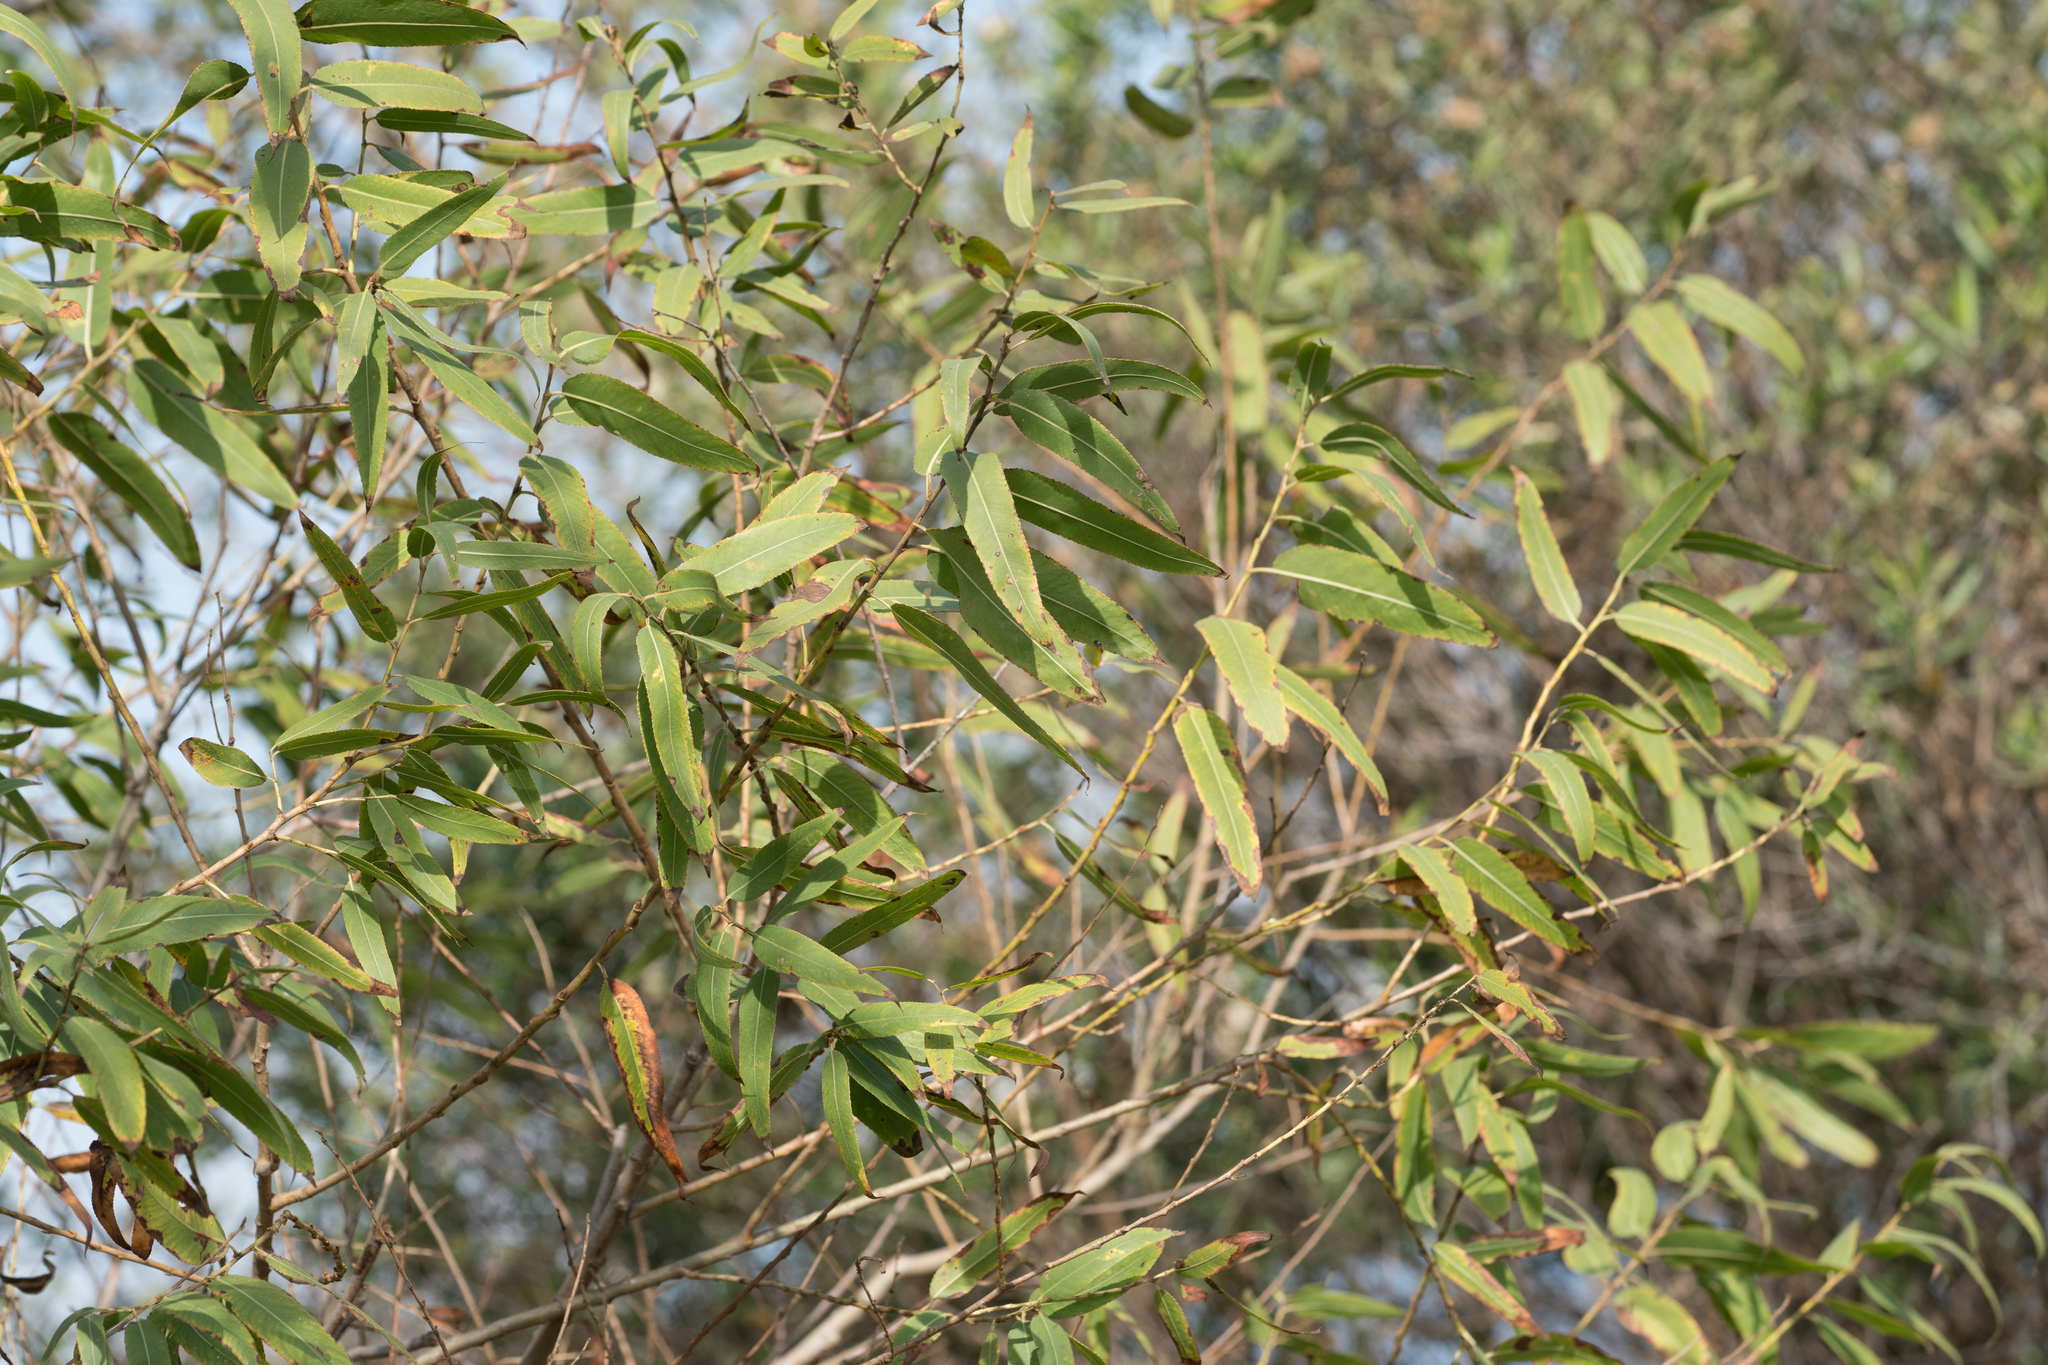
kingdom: Plantae
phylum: Tracheophyta
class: Magnoliopsida
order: Malpighiales
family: Salicaceae
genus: Salix
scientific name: Salix laevigata
